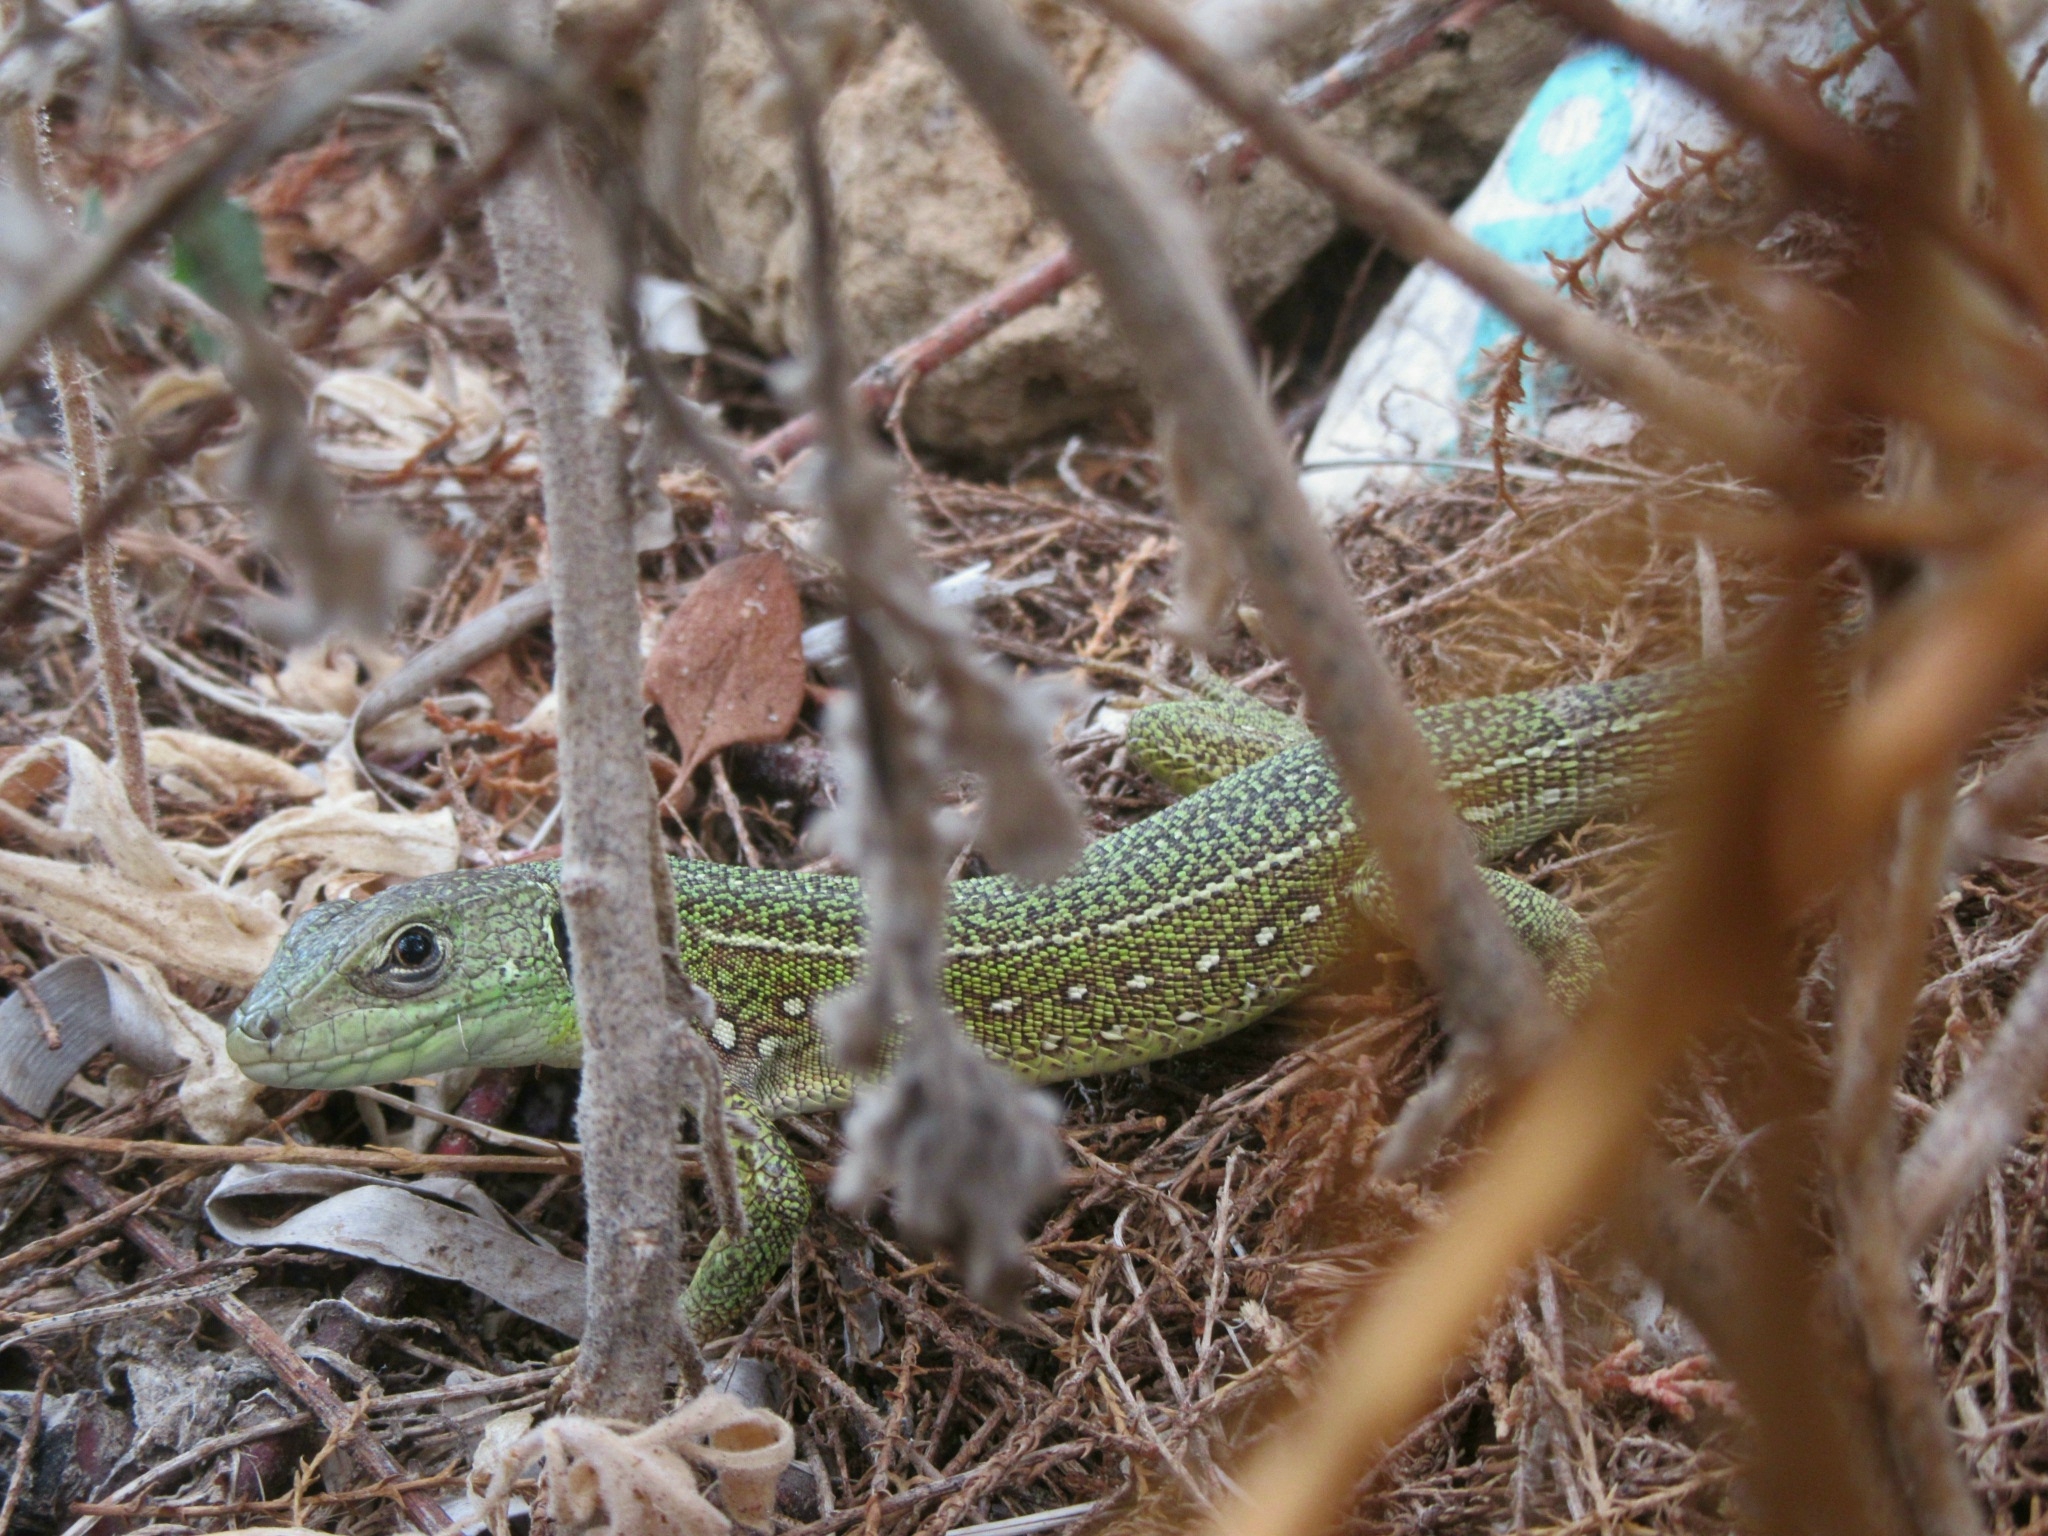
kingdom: Animalia
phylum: Chordata
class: Squamata
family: Lacertidae
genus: Lacerta
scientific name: Lacerta trilineata
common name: Balkan green lizard
